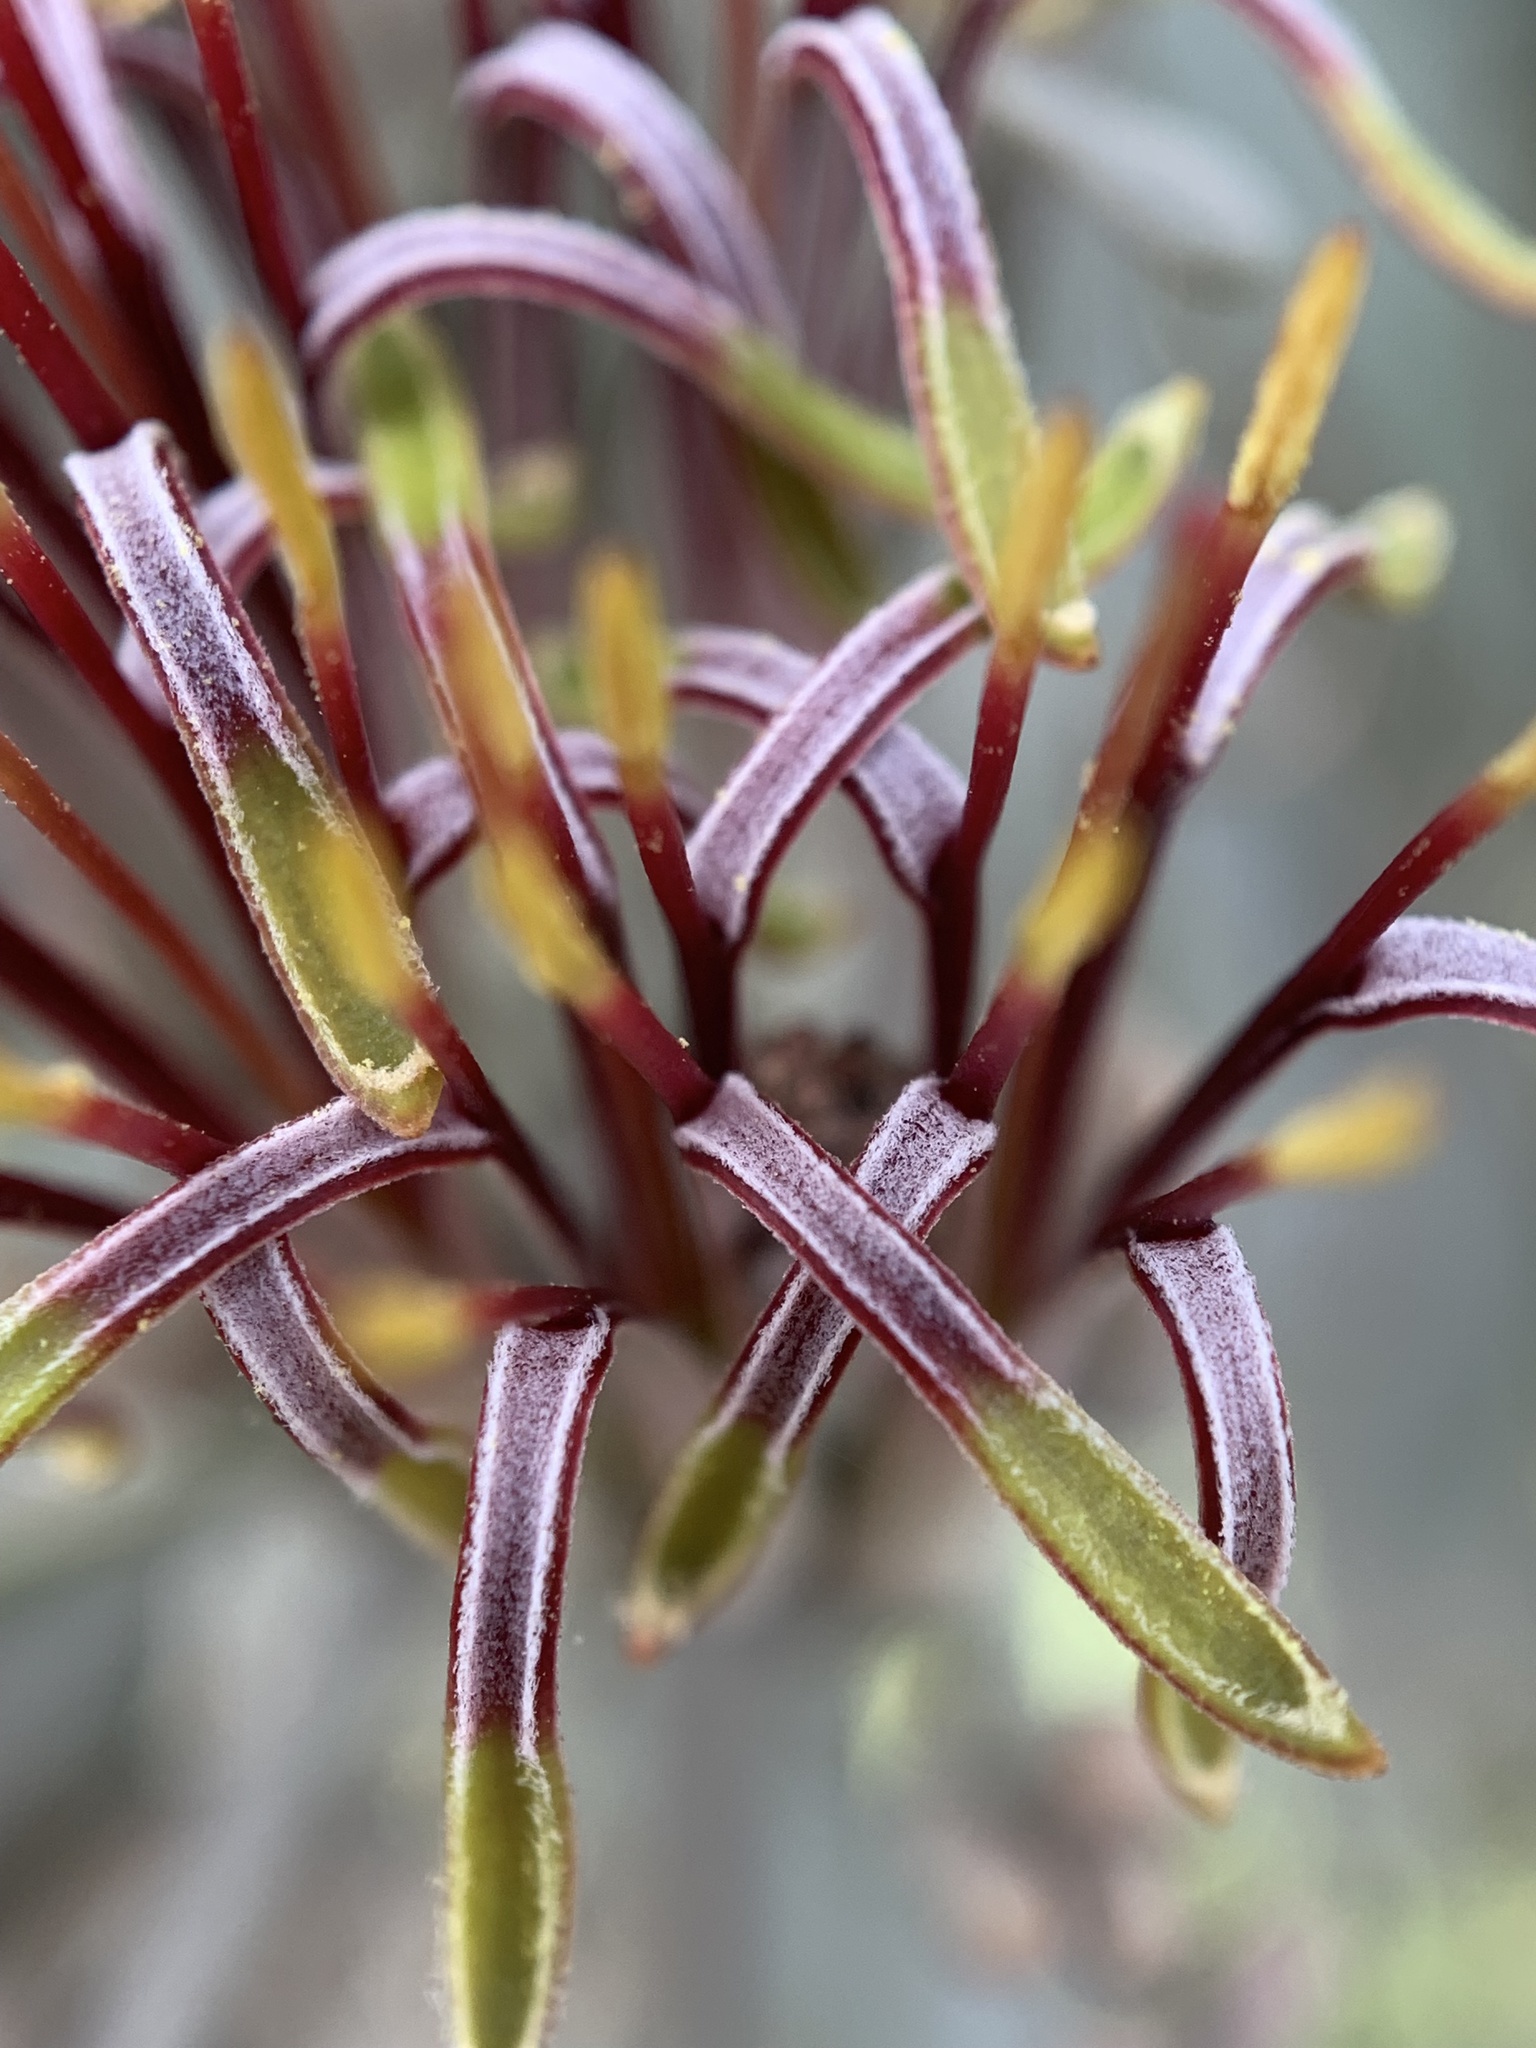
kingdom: Plantae
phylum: Tracheophyta
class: Magnoliopsida
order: Santalales
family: Loranthaceae
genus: Amyema
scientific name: Amyema quandang
